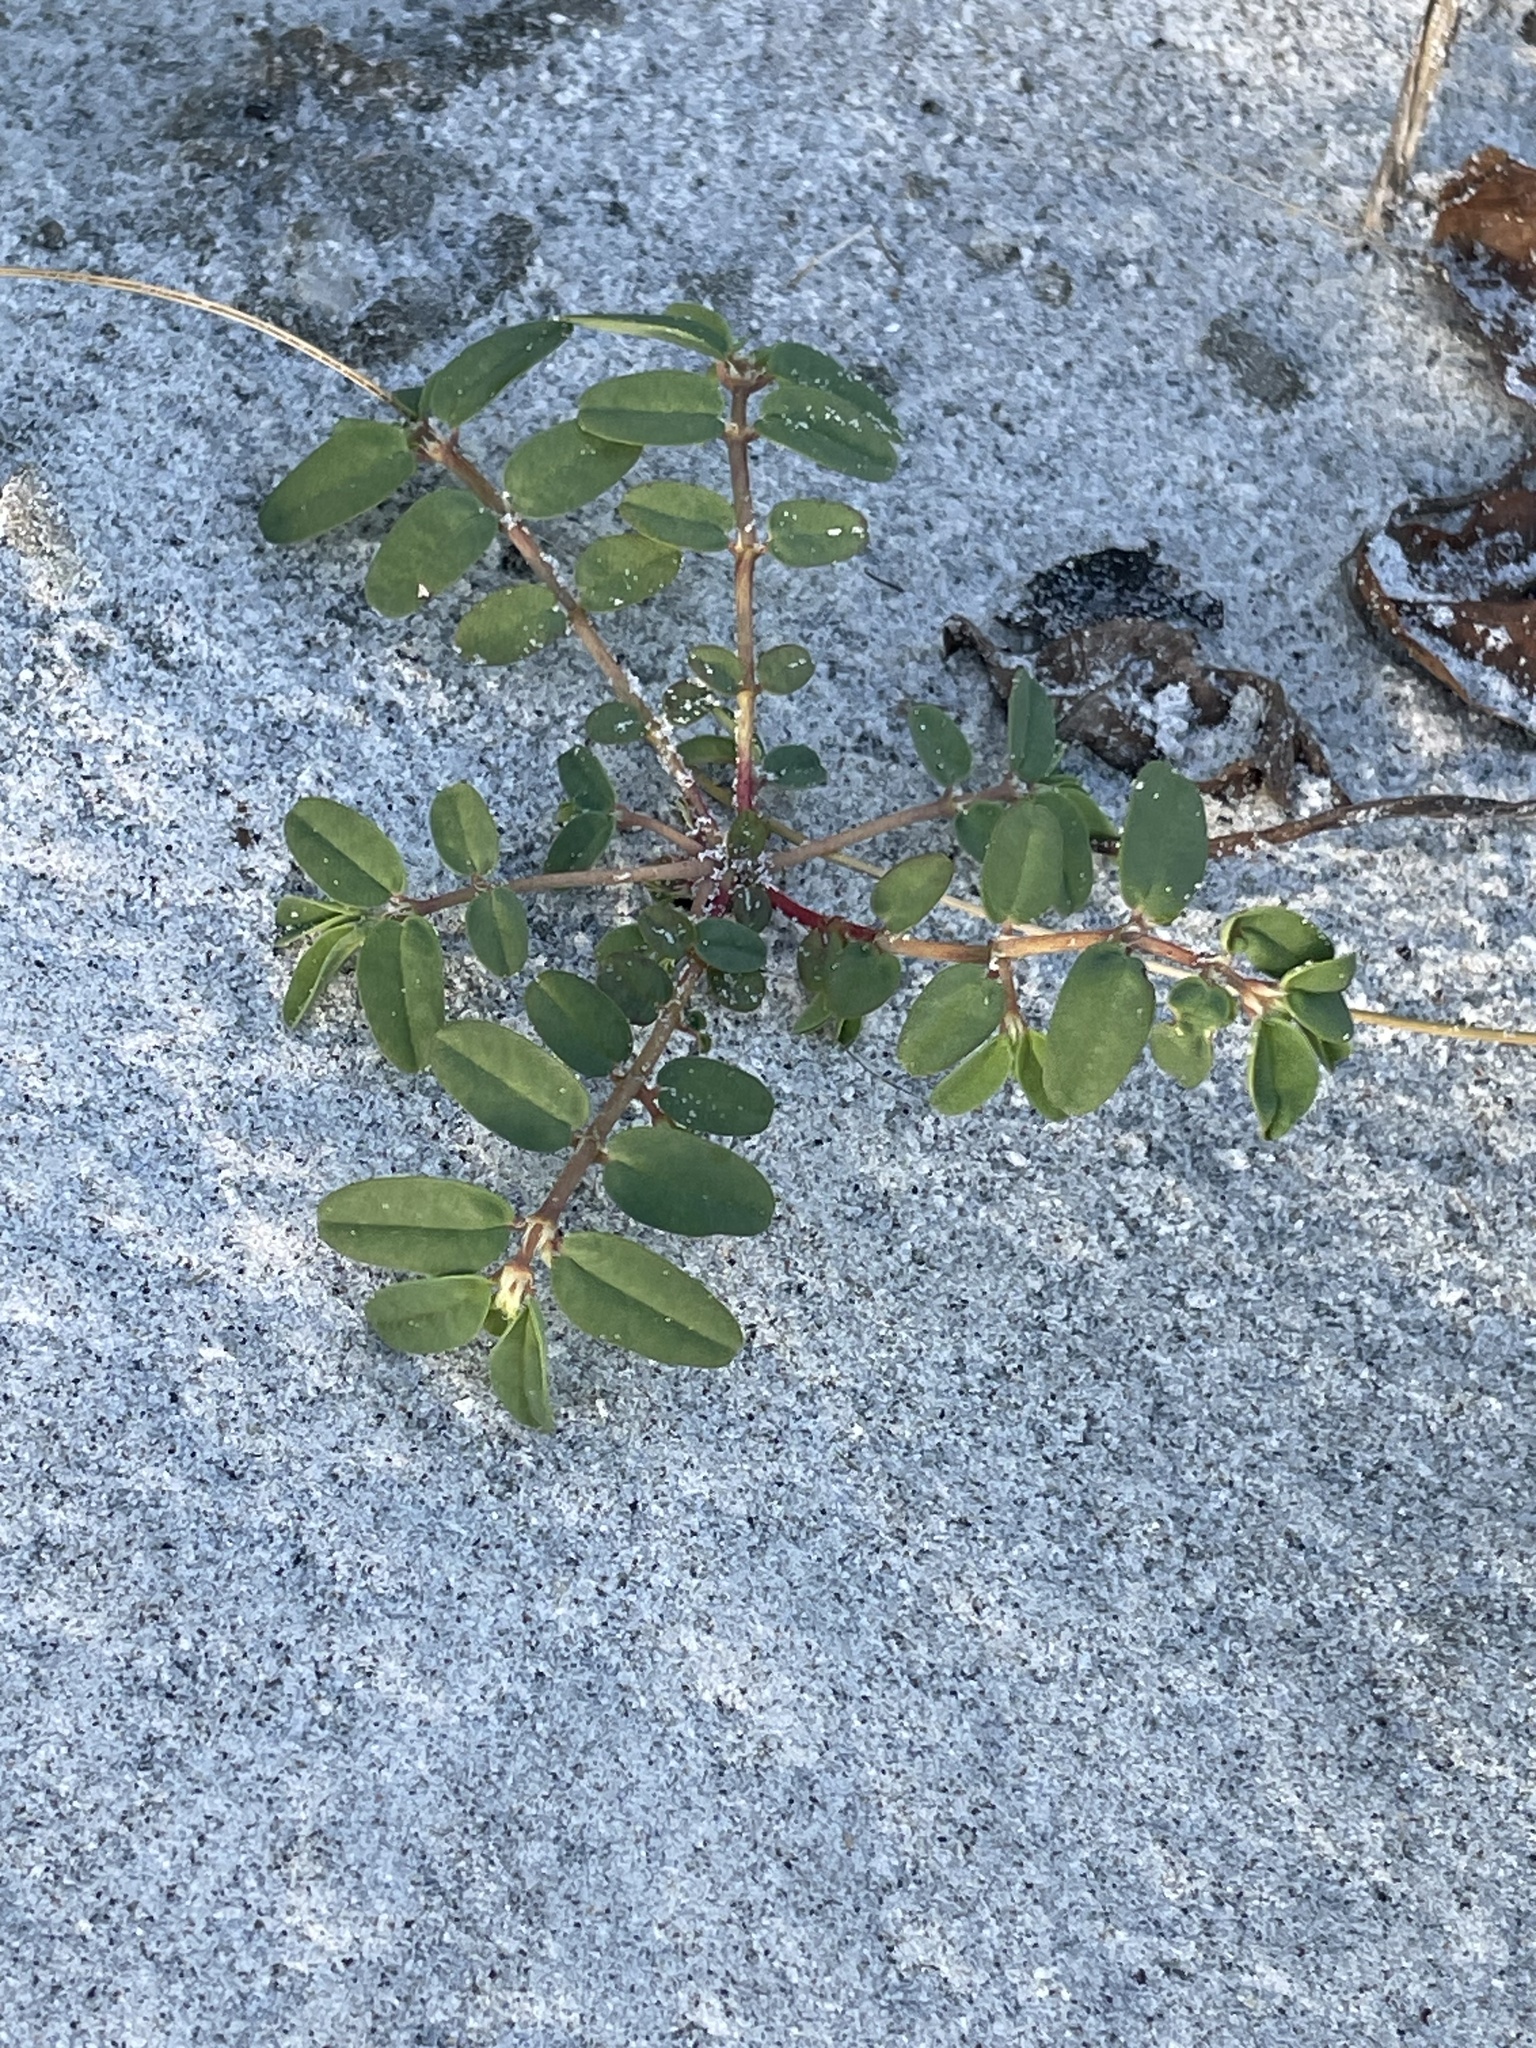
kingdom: Plantae
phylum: Tracheophyta
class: Magnoliopsida
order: Malpighiales
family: Euphorbiaceae
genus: Euphorbia
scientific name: Euphorbia bombensis
